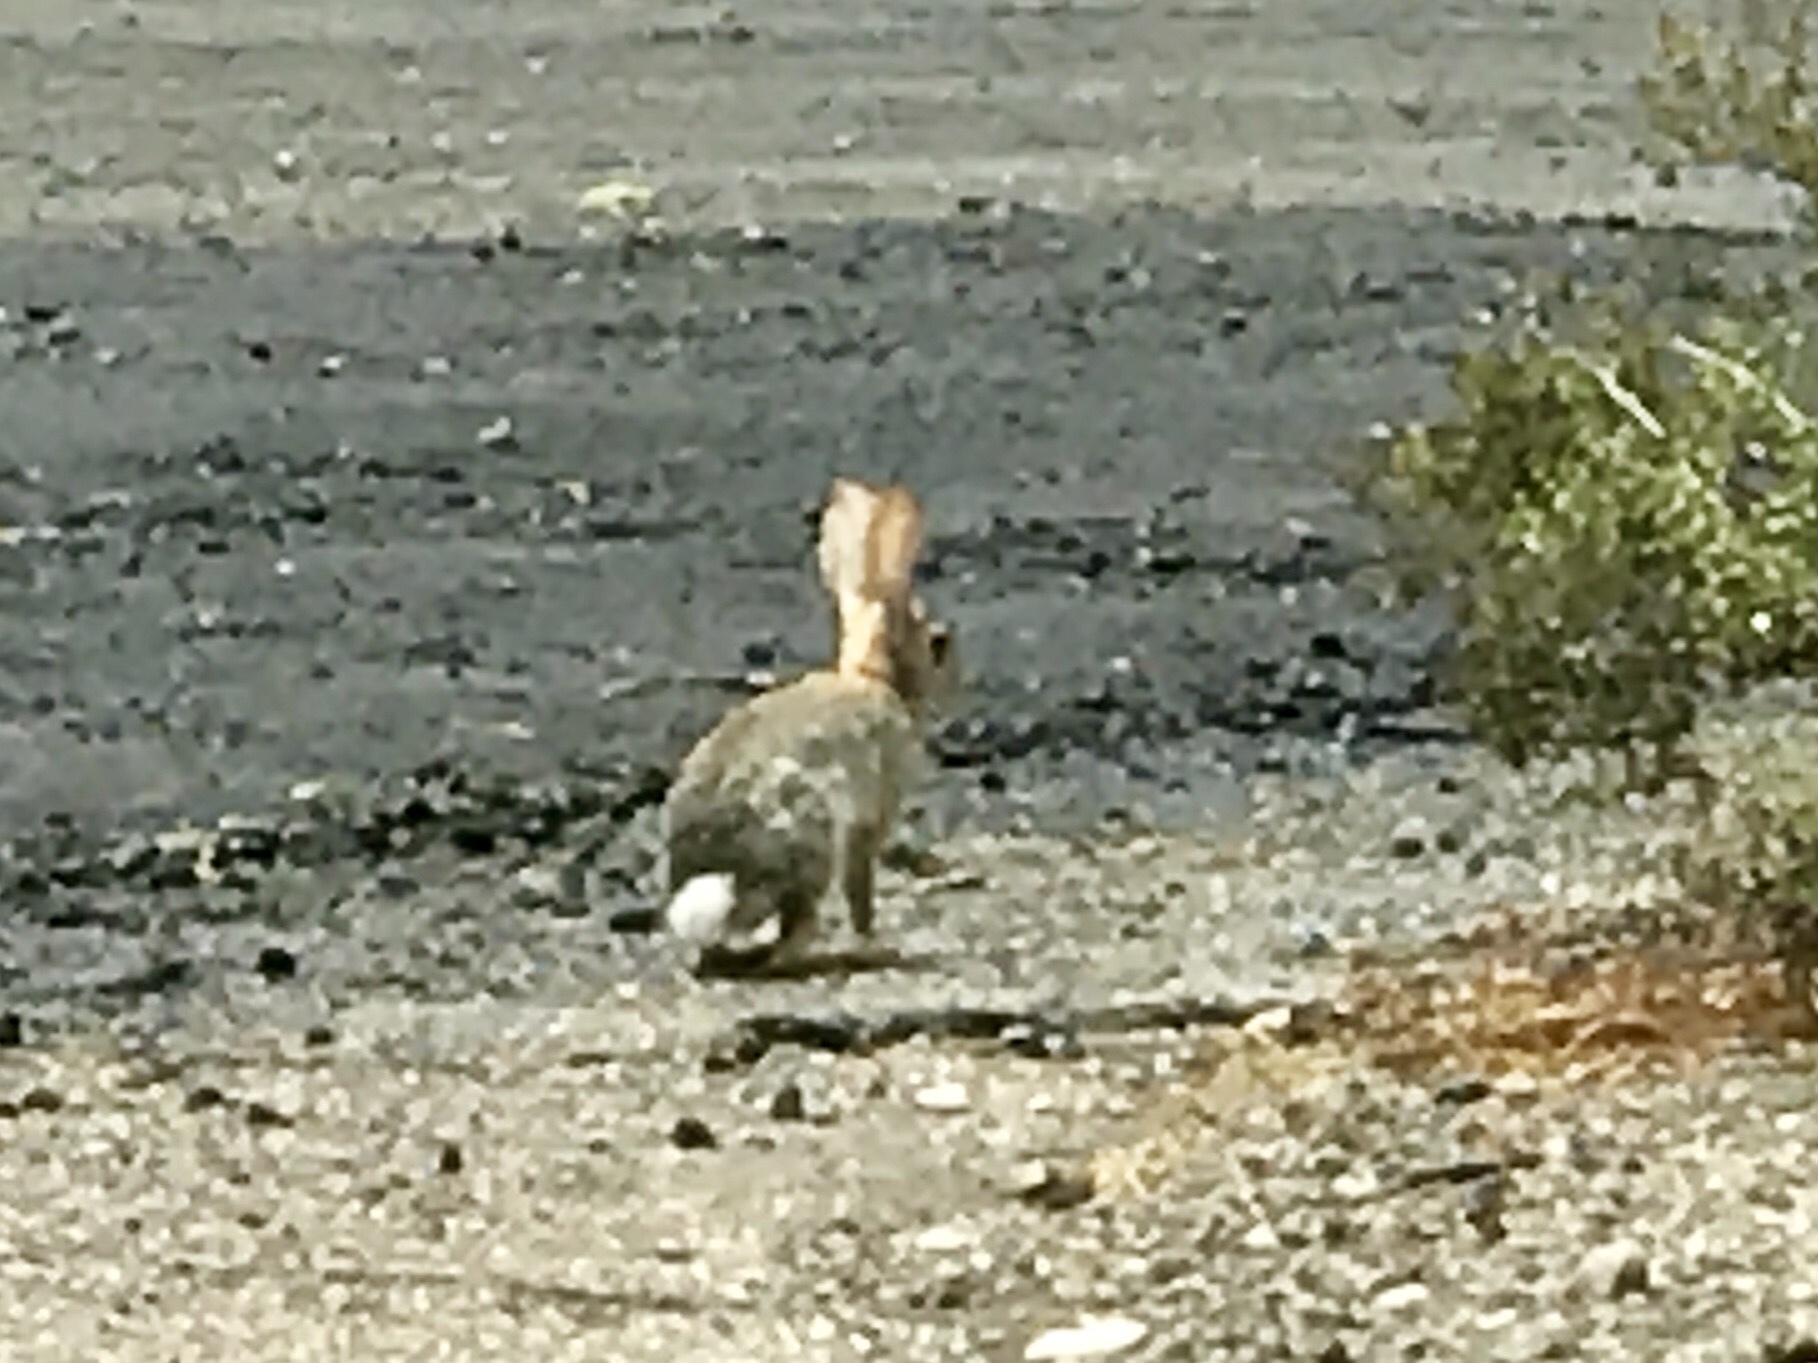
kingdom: Animalia
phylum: Chordata
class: Mammalia
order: Lagomorpha
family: Leporidae
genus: Sylvilagus
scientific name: Sylvilagus audubonii
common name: Desert cottontail
